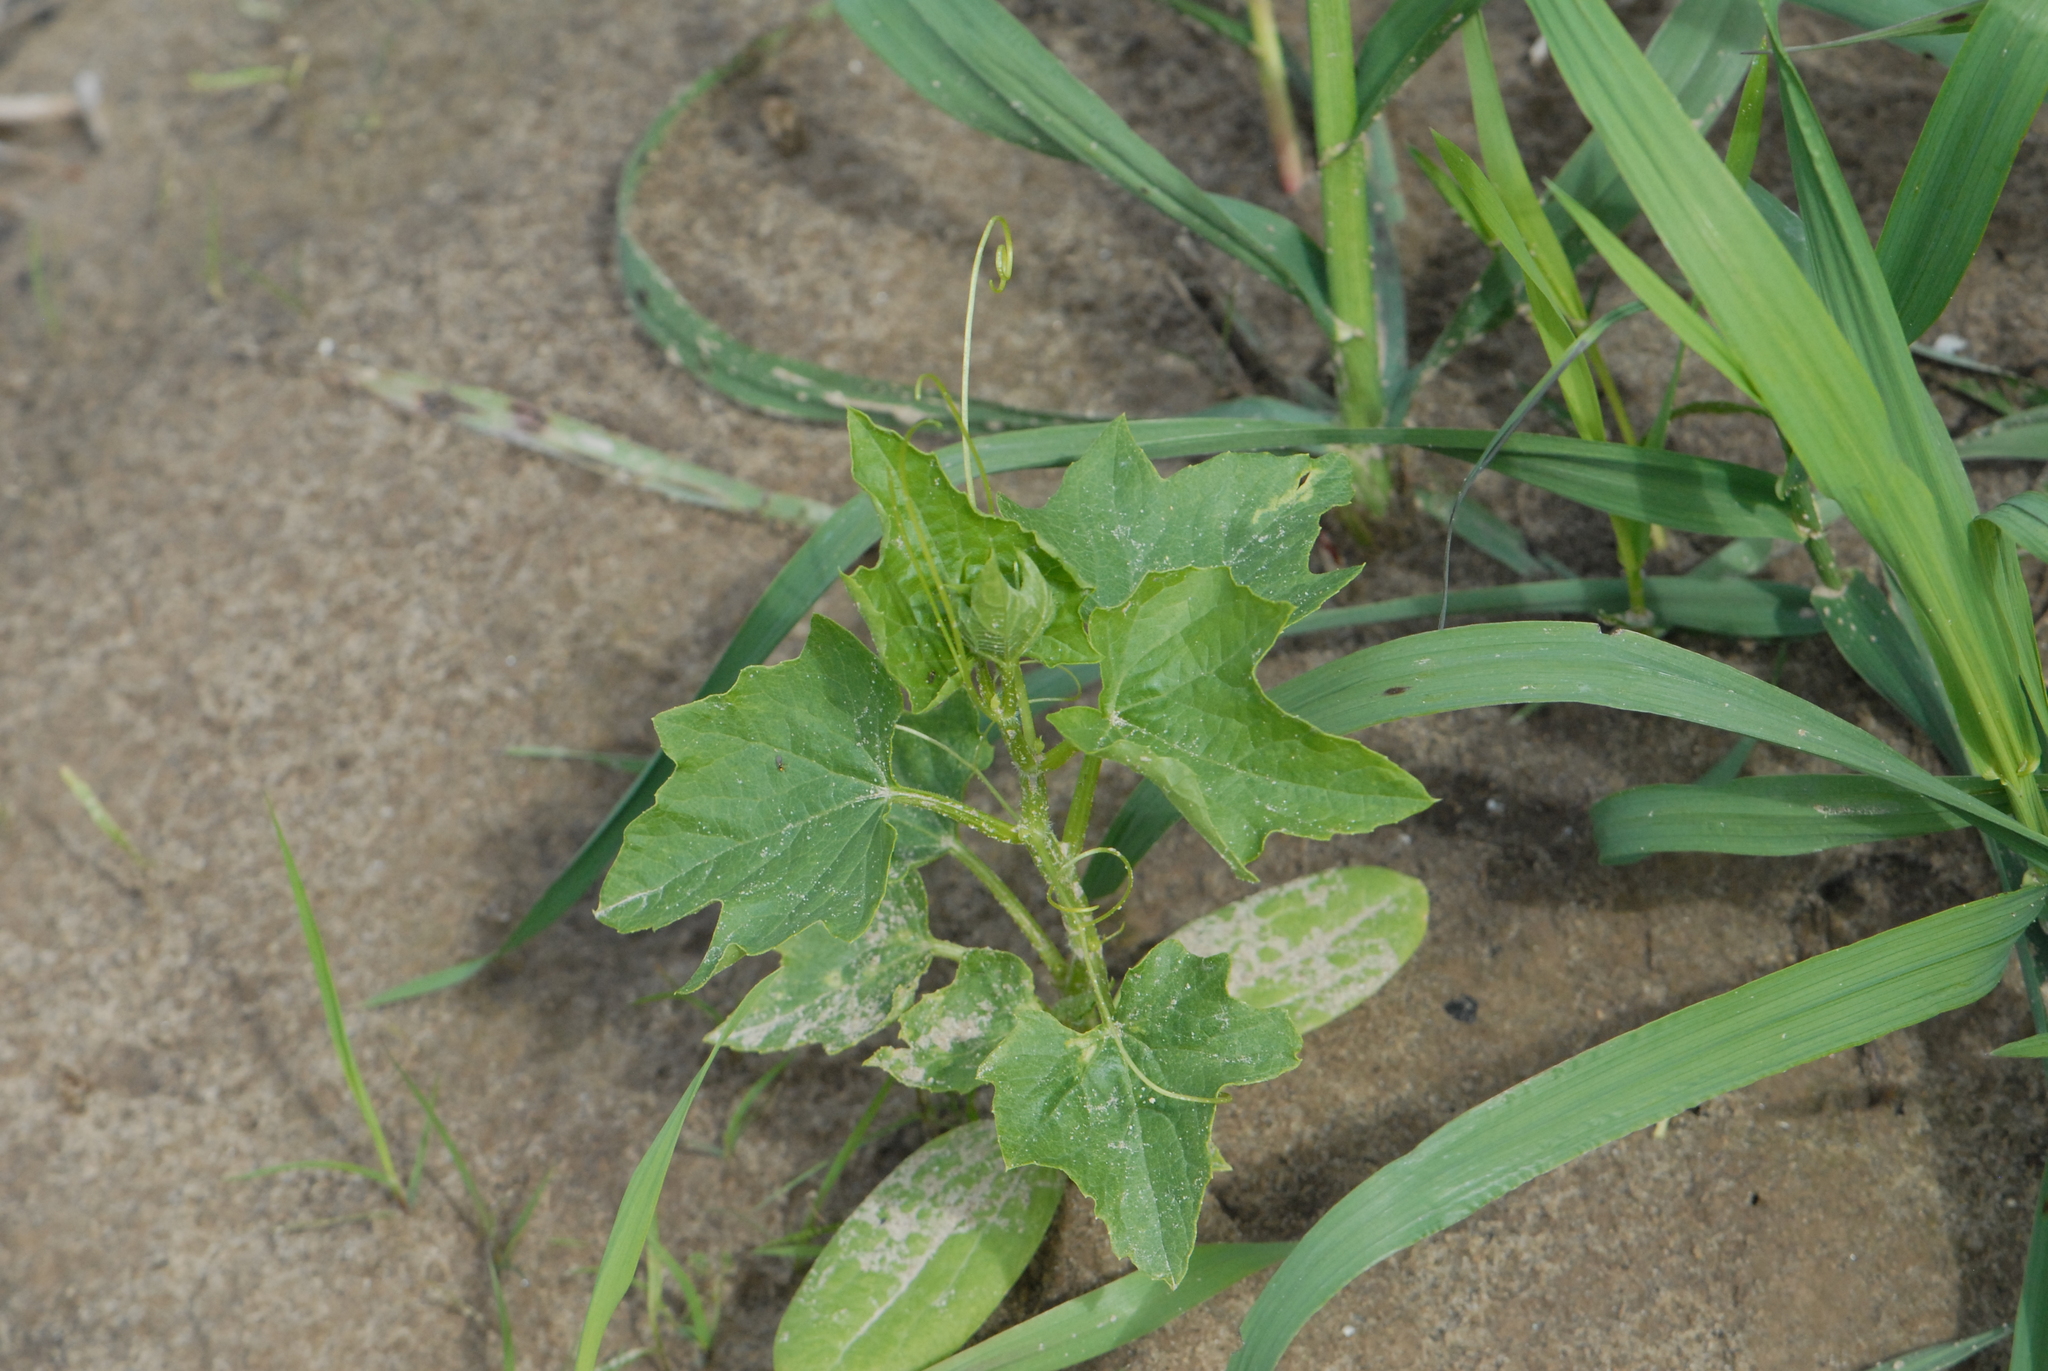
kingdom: Plantae
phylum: Tracheophyta
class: Magnoliopsida
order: Cucurbitales
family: Cucurbitaceae
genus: Echinocystis
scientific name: Echinocystis lobata
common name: Wild cucumber
